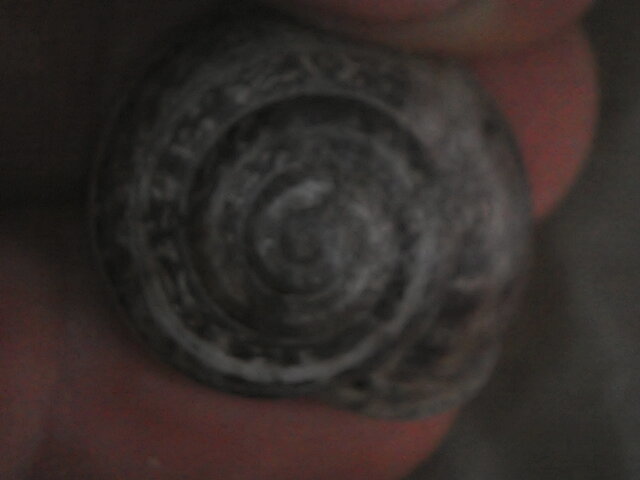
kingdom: Animalia
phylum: Mollusca
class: Gastropoda
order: Stylommatophora
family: Helicidae
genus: Eobania
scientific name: Eobania vermiculata
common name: Chocolateband snail
